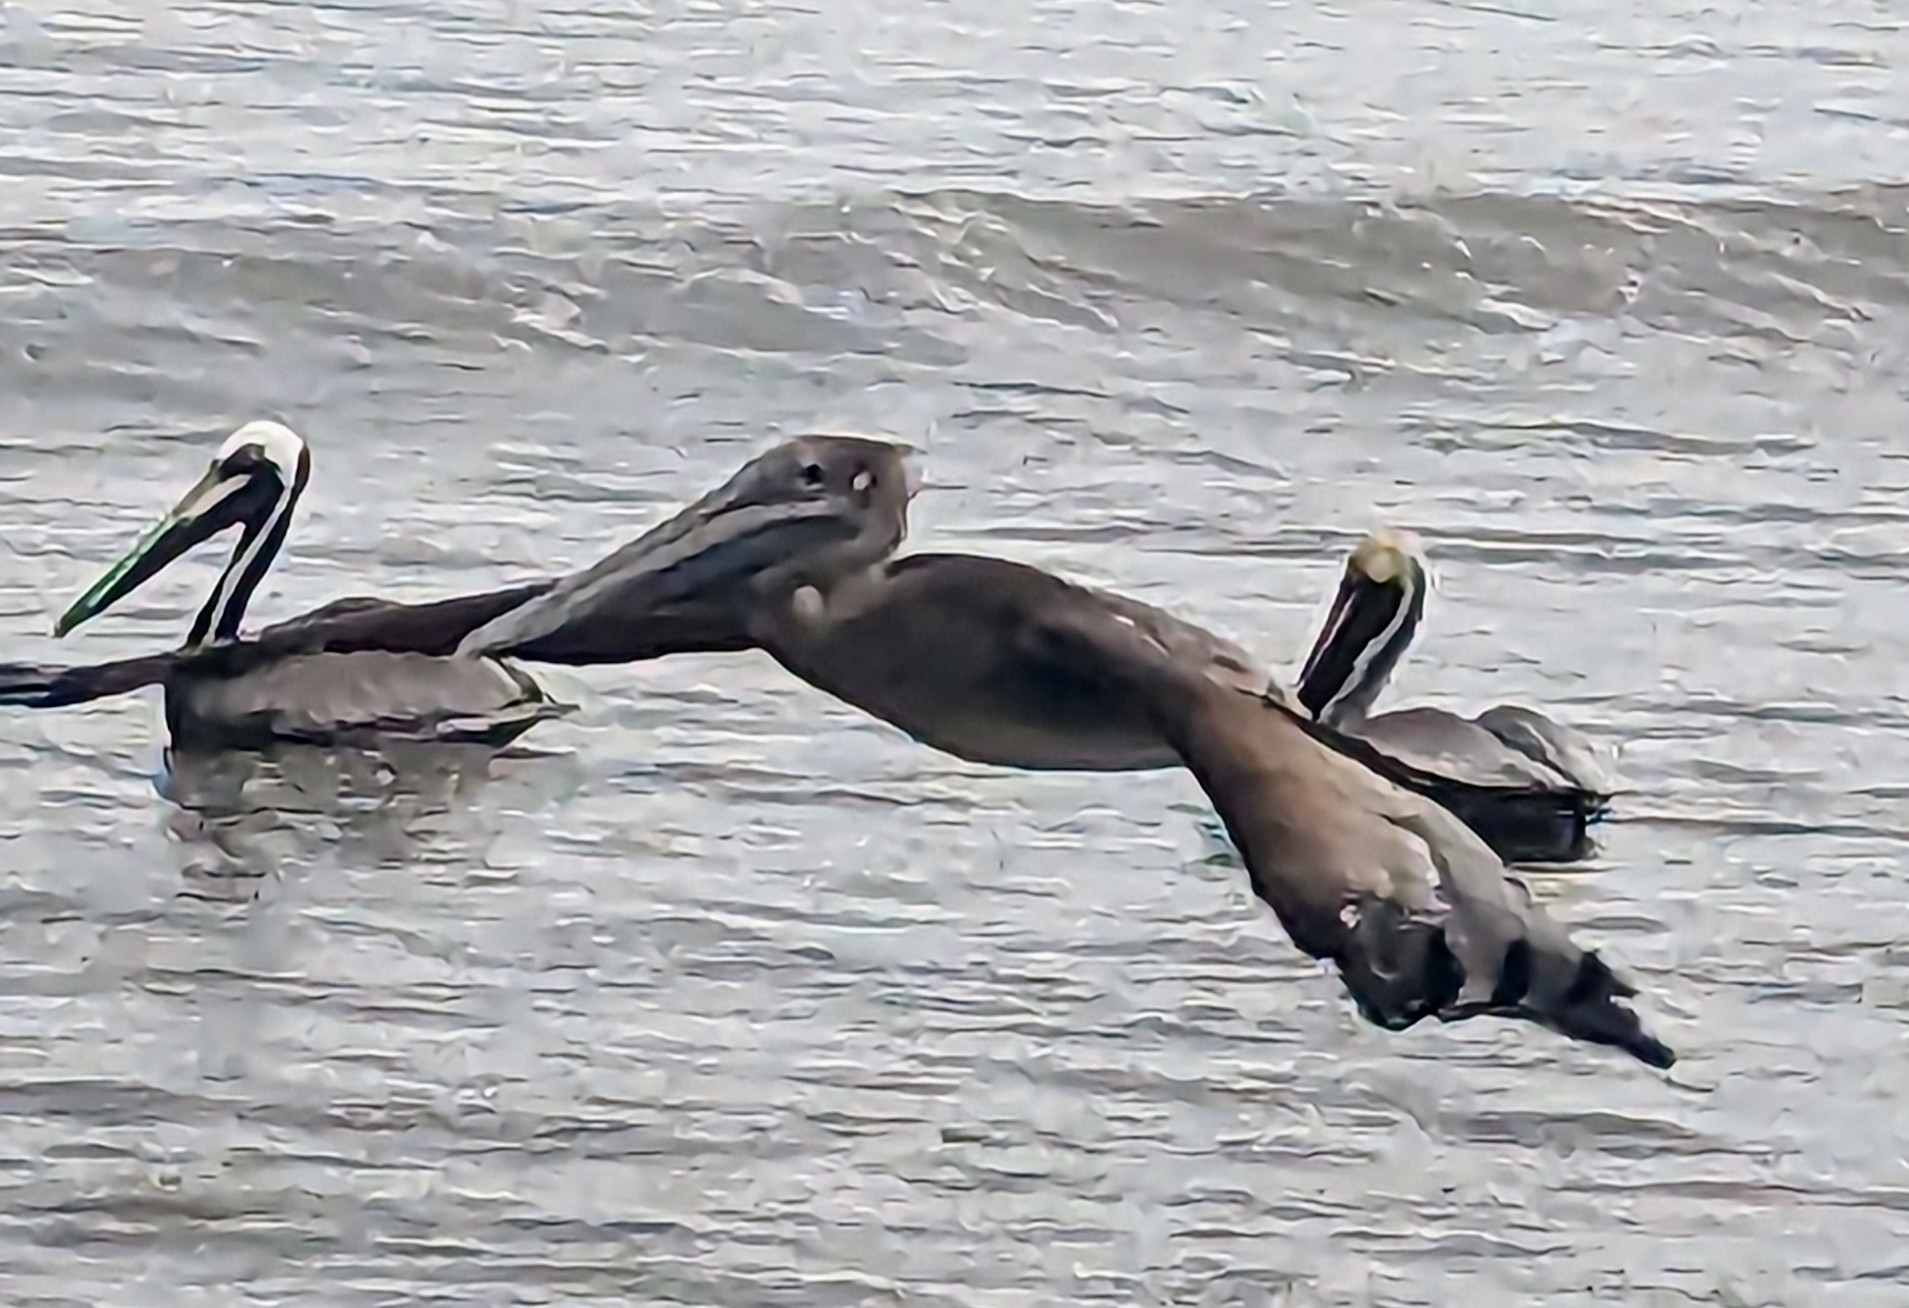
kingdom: Animalia
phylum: Chordata
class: Aves
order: Pelecaniformes
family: Pelecanidae
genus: Pelecanus
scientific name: Pelecanus occidentalis
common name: Brown pelican
